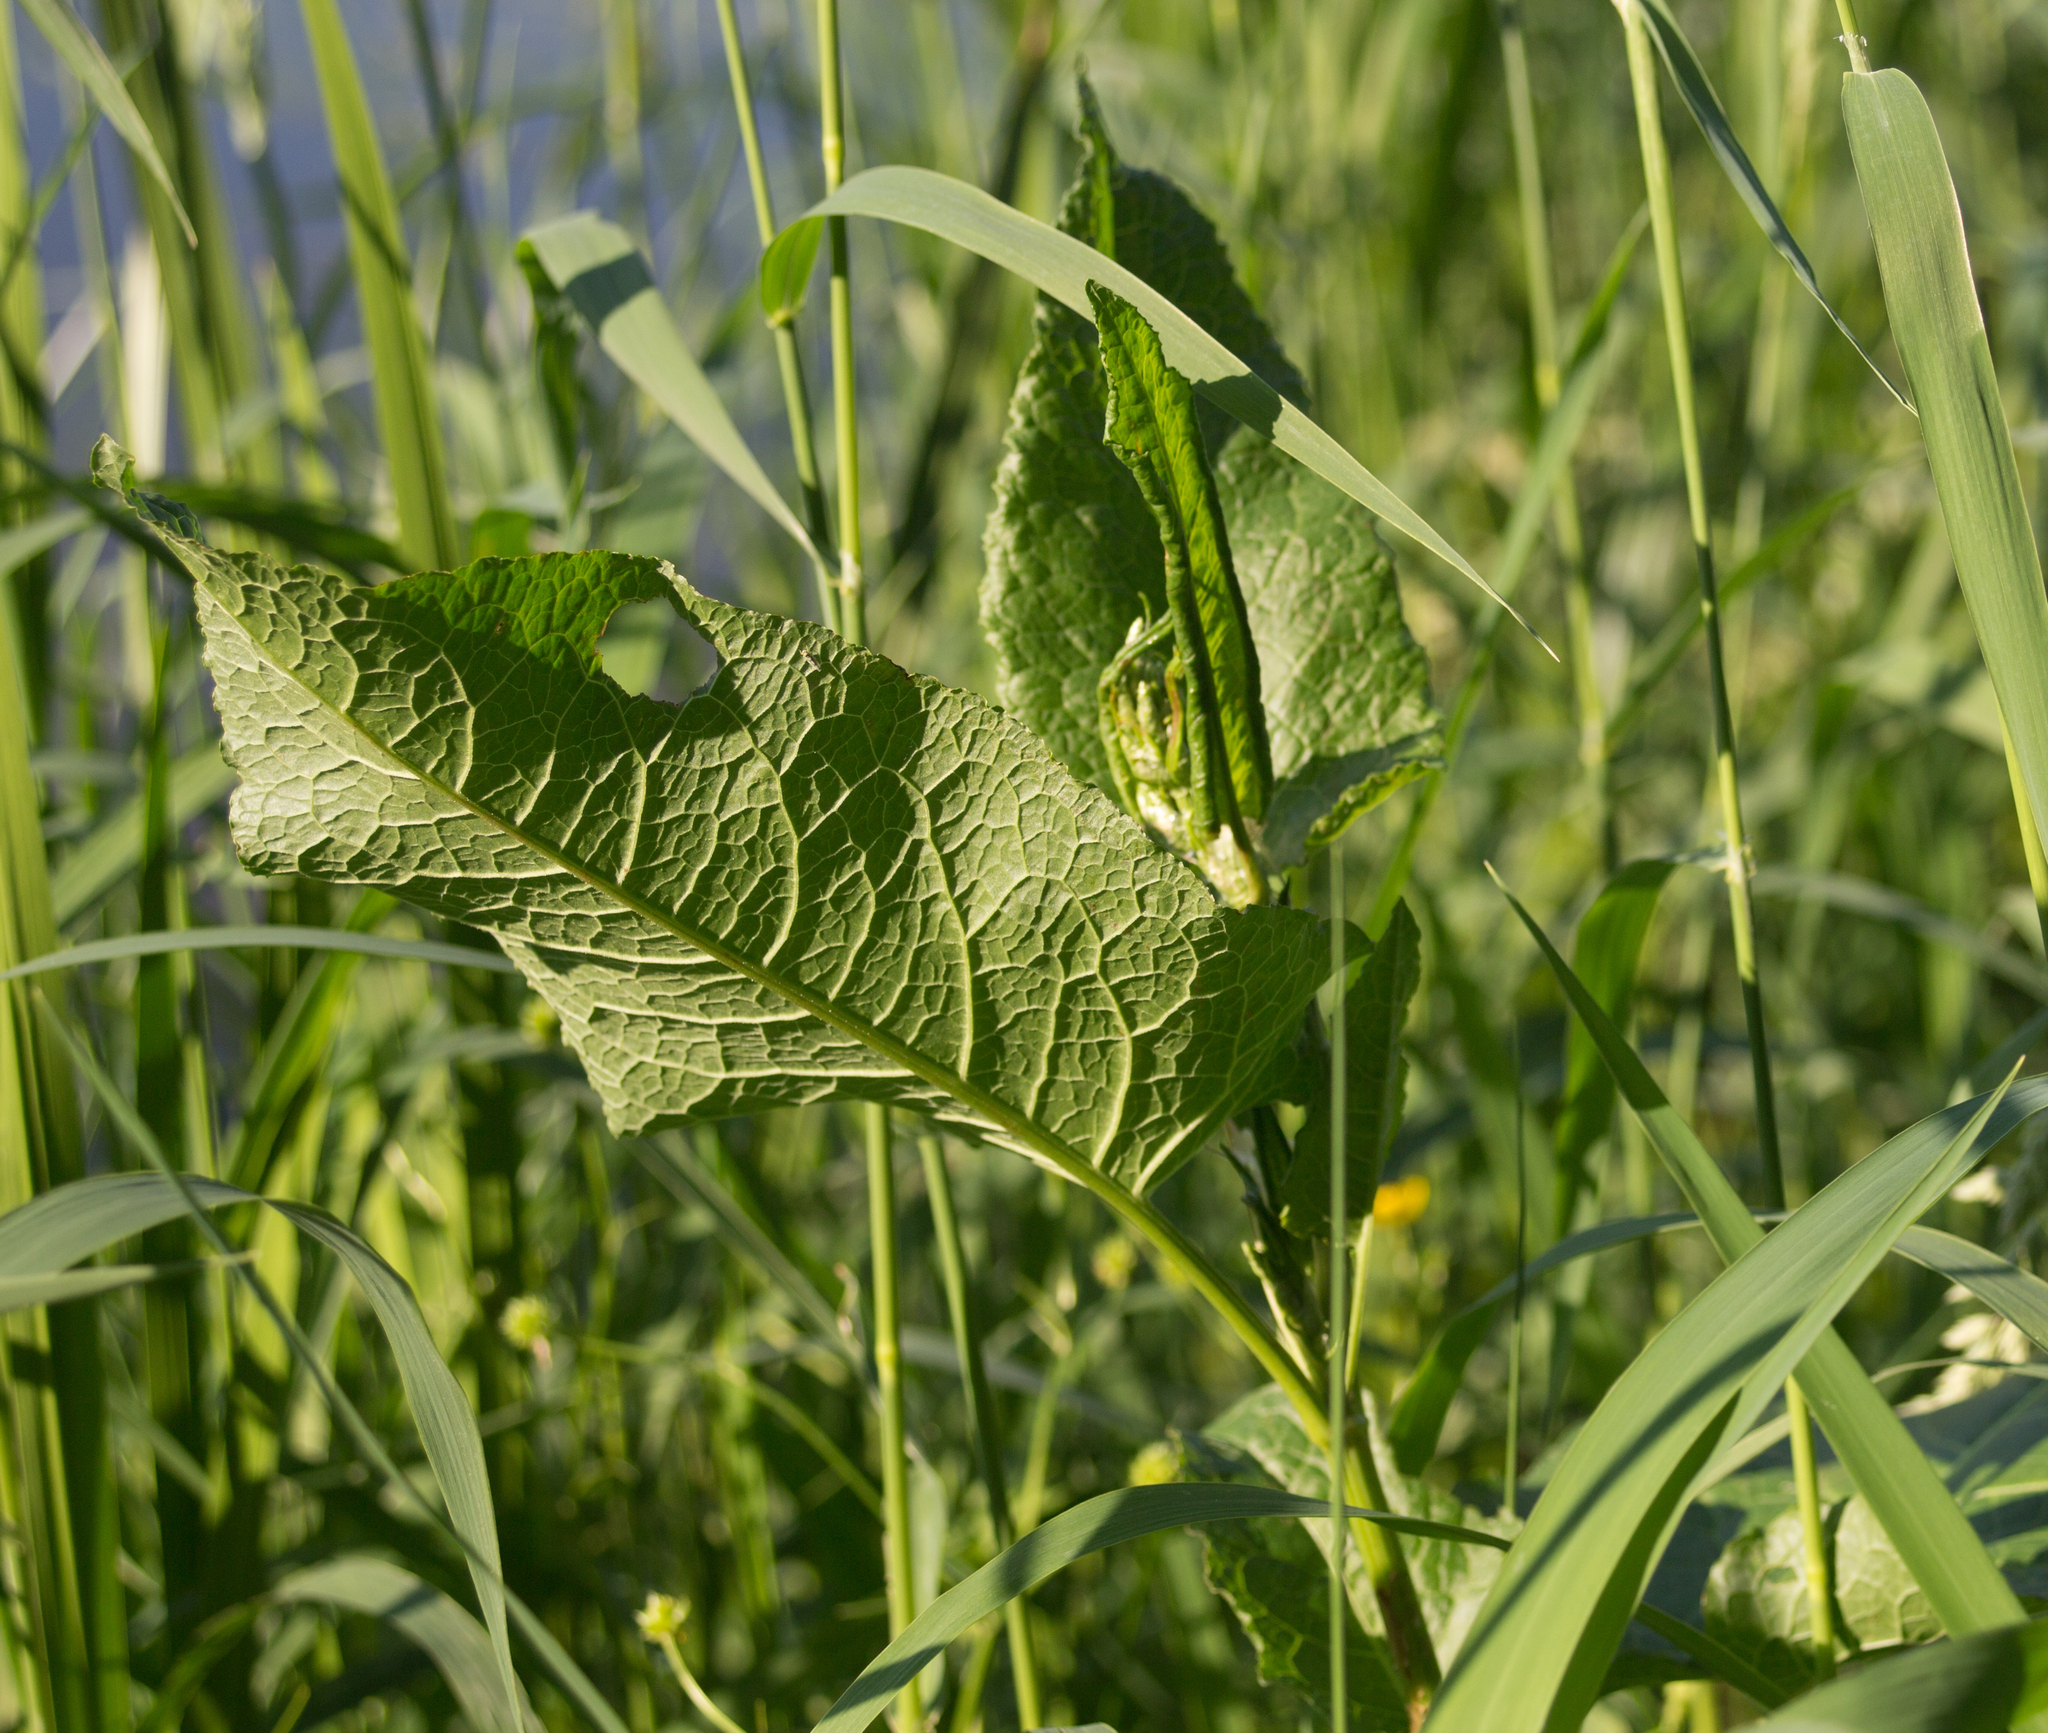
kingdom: Plantae
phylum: Tracheophyta
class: Magnoliopsida
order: Caryophyllales
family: Polygonaceae
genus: Rumex
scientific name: Rumex obtusifolius
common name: Bitter dock
